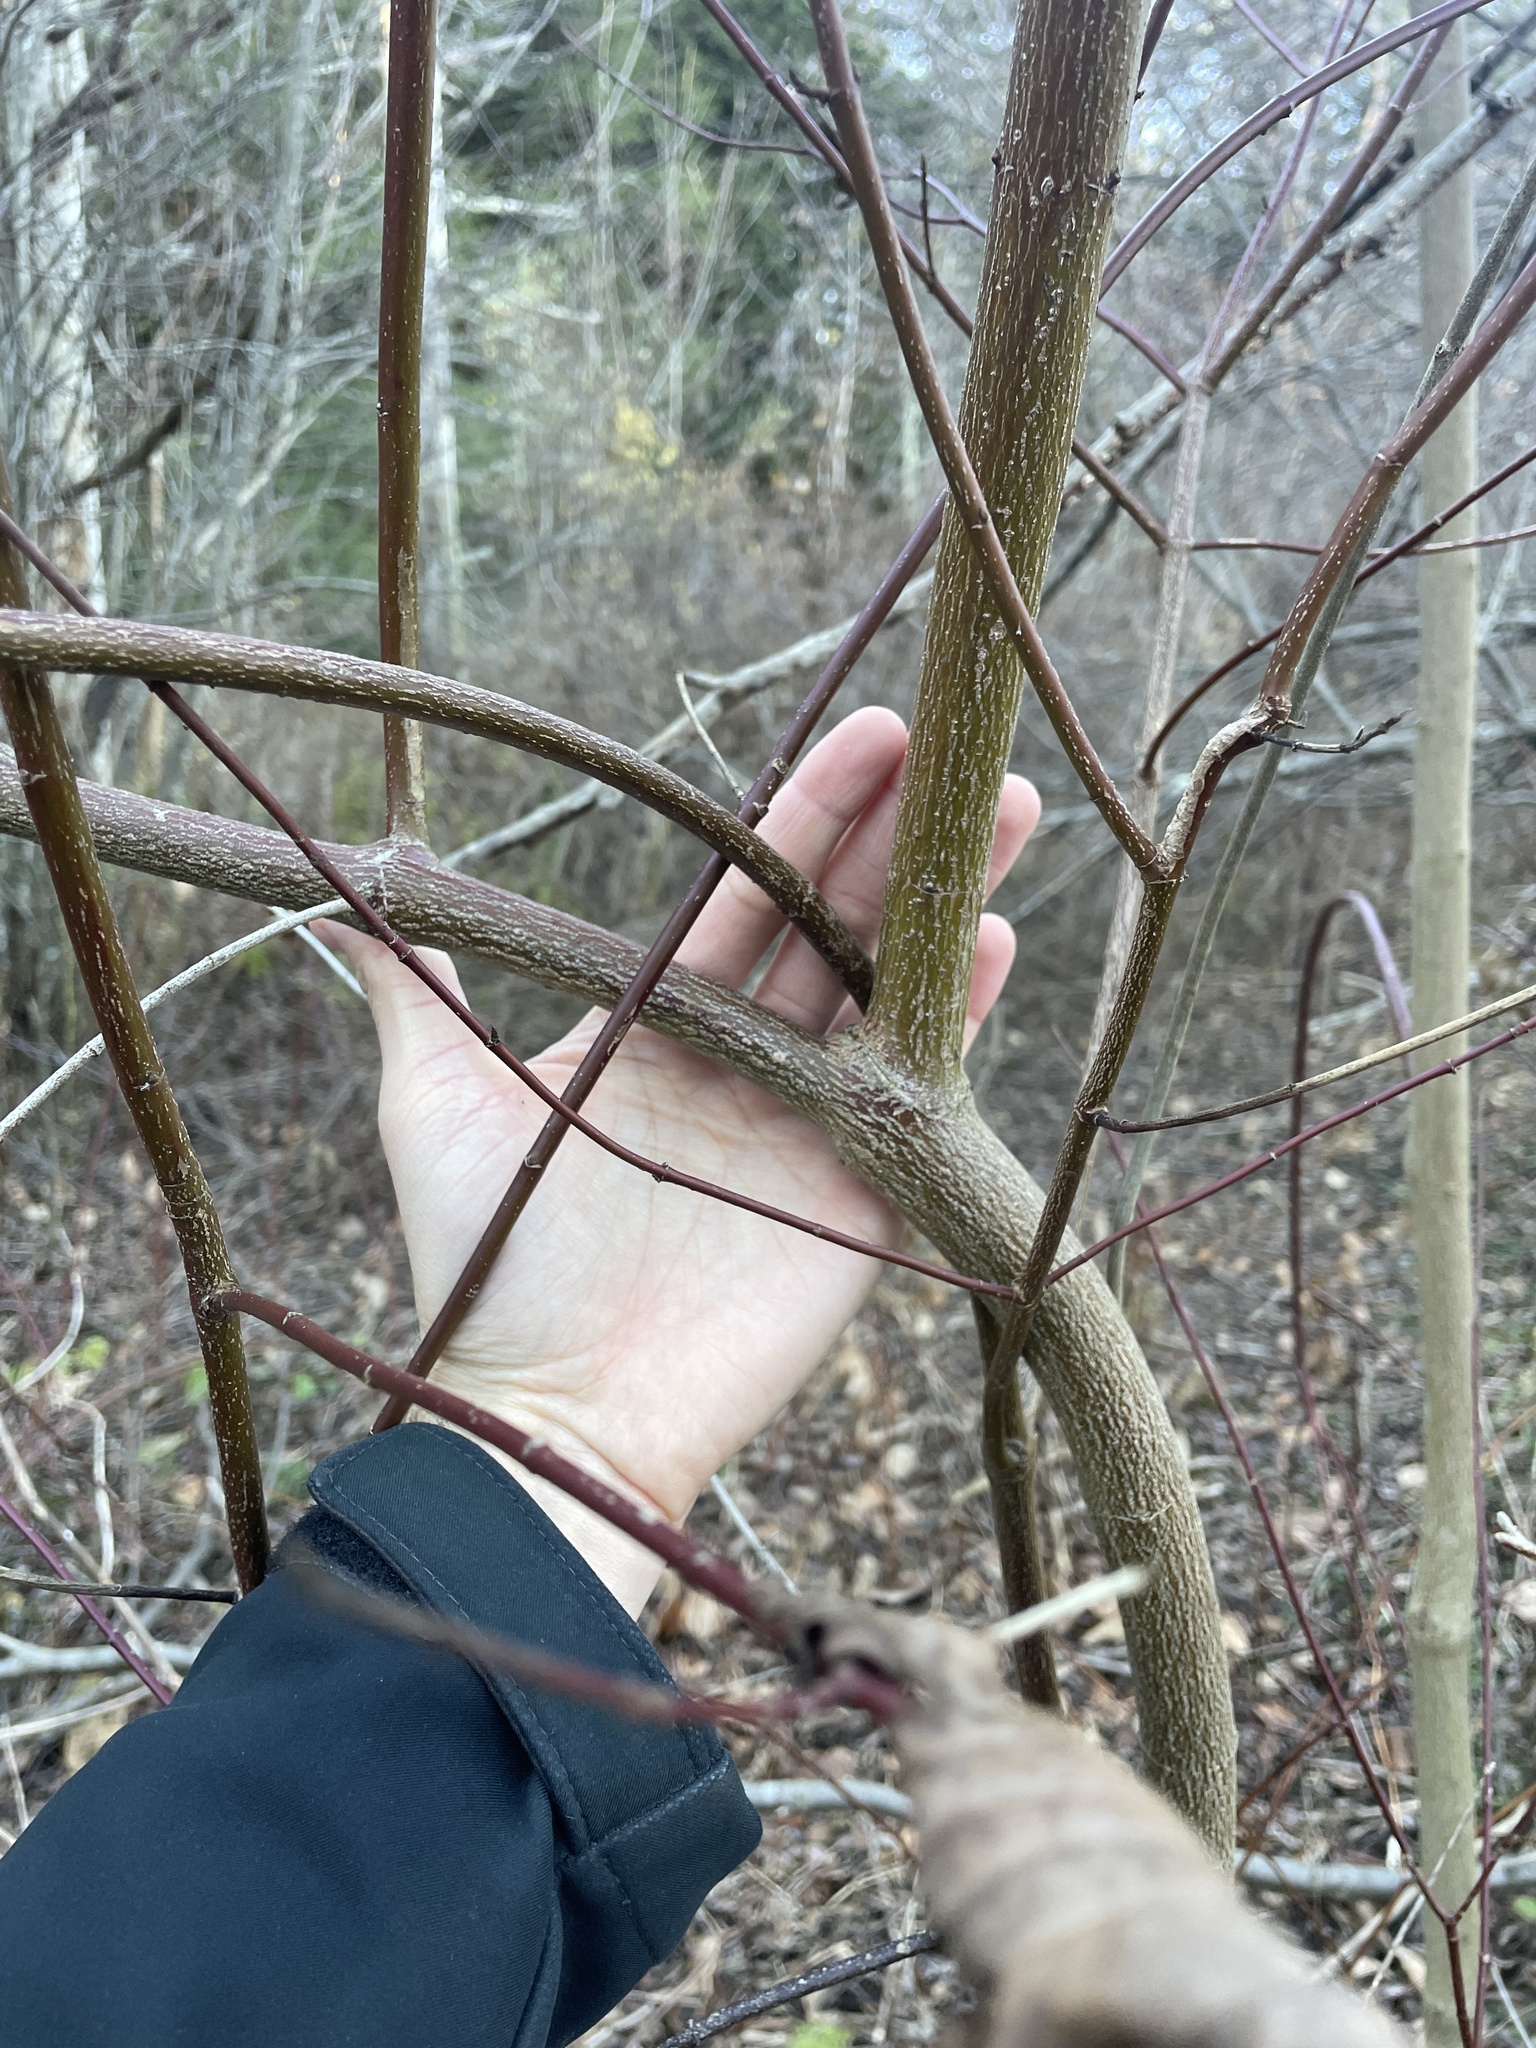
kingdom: Plantae
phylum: Tracheophyta
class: Magnoliopsida
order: Cornales
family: Cornaceae
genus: Cornus
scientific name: Cornus amomum
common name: Silky dogwood
